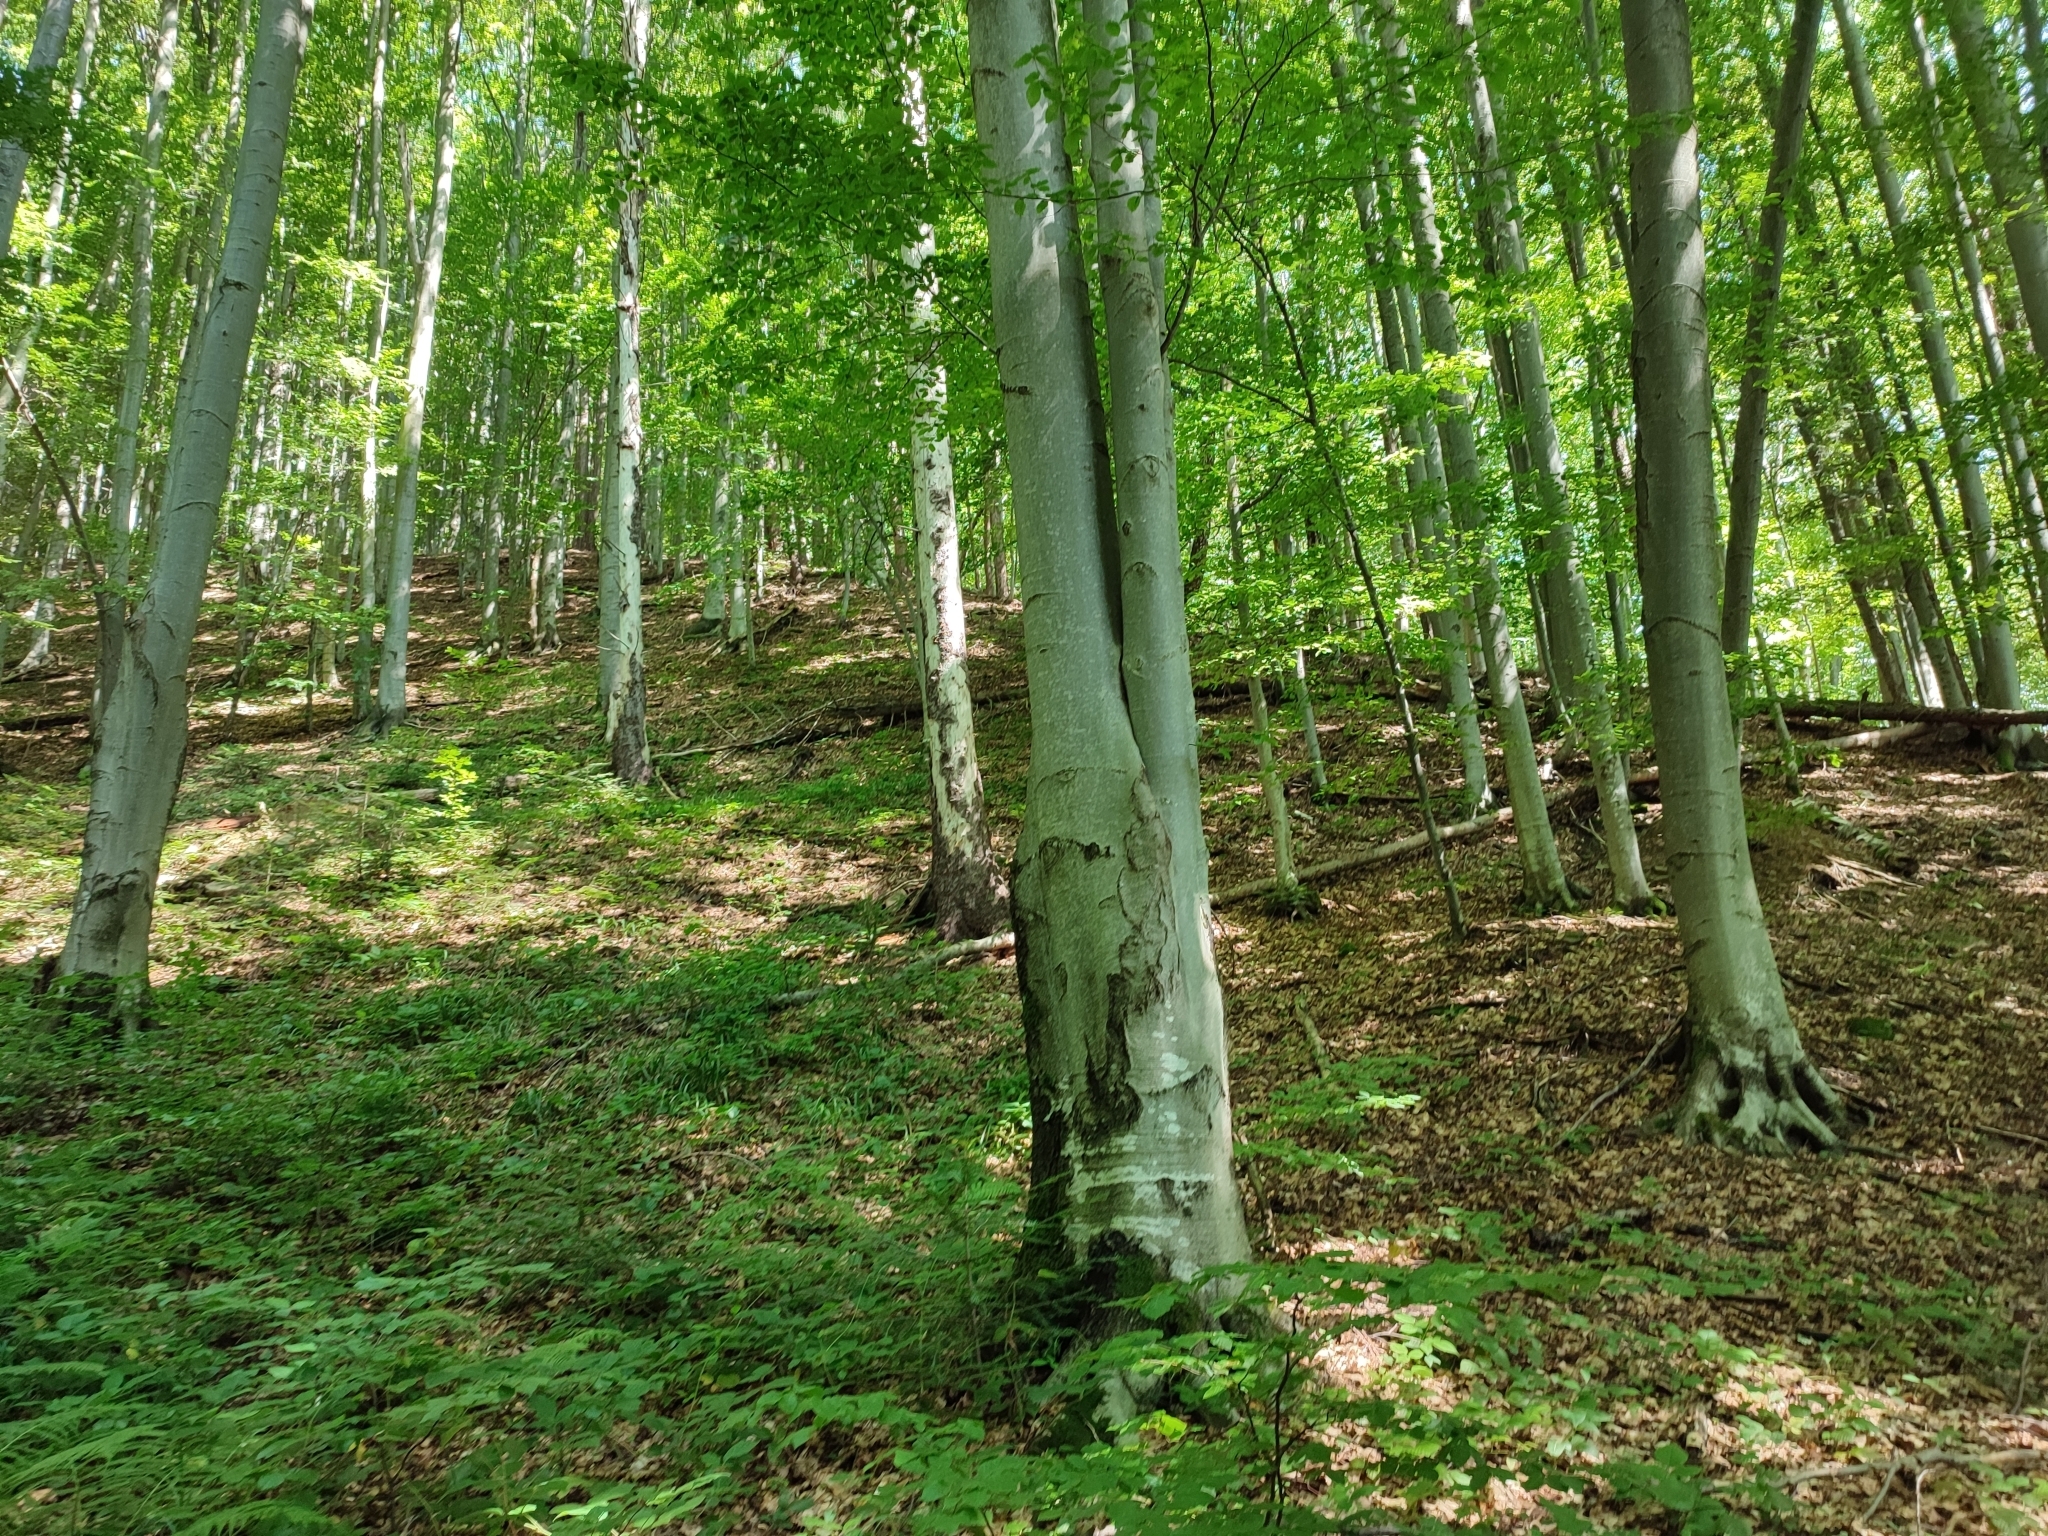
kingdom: Plantae
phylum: Tracheophyta
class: Magnoliopsida
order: Fagales
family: Fagaceae
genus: Fagus
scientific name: Fagus sylvatica
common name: Beech
